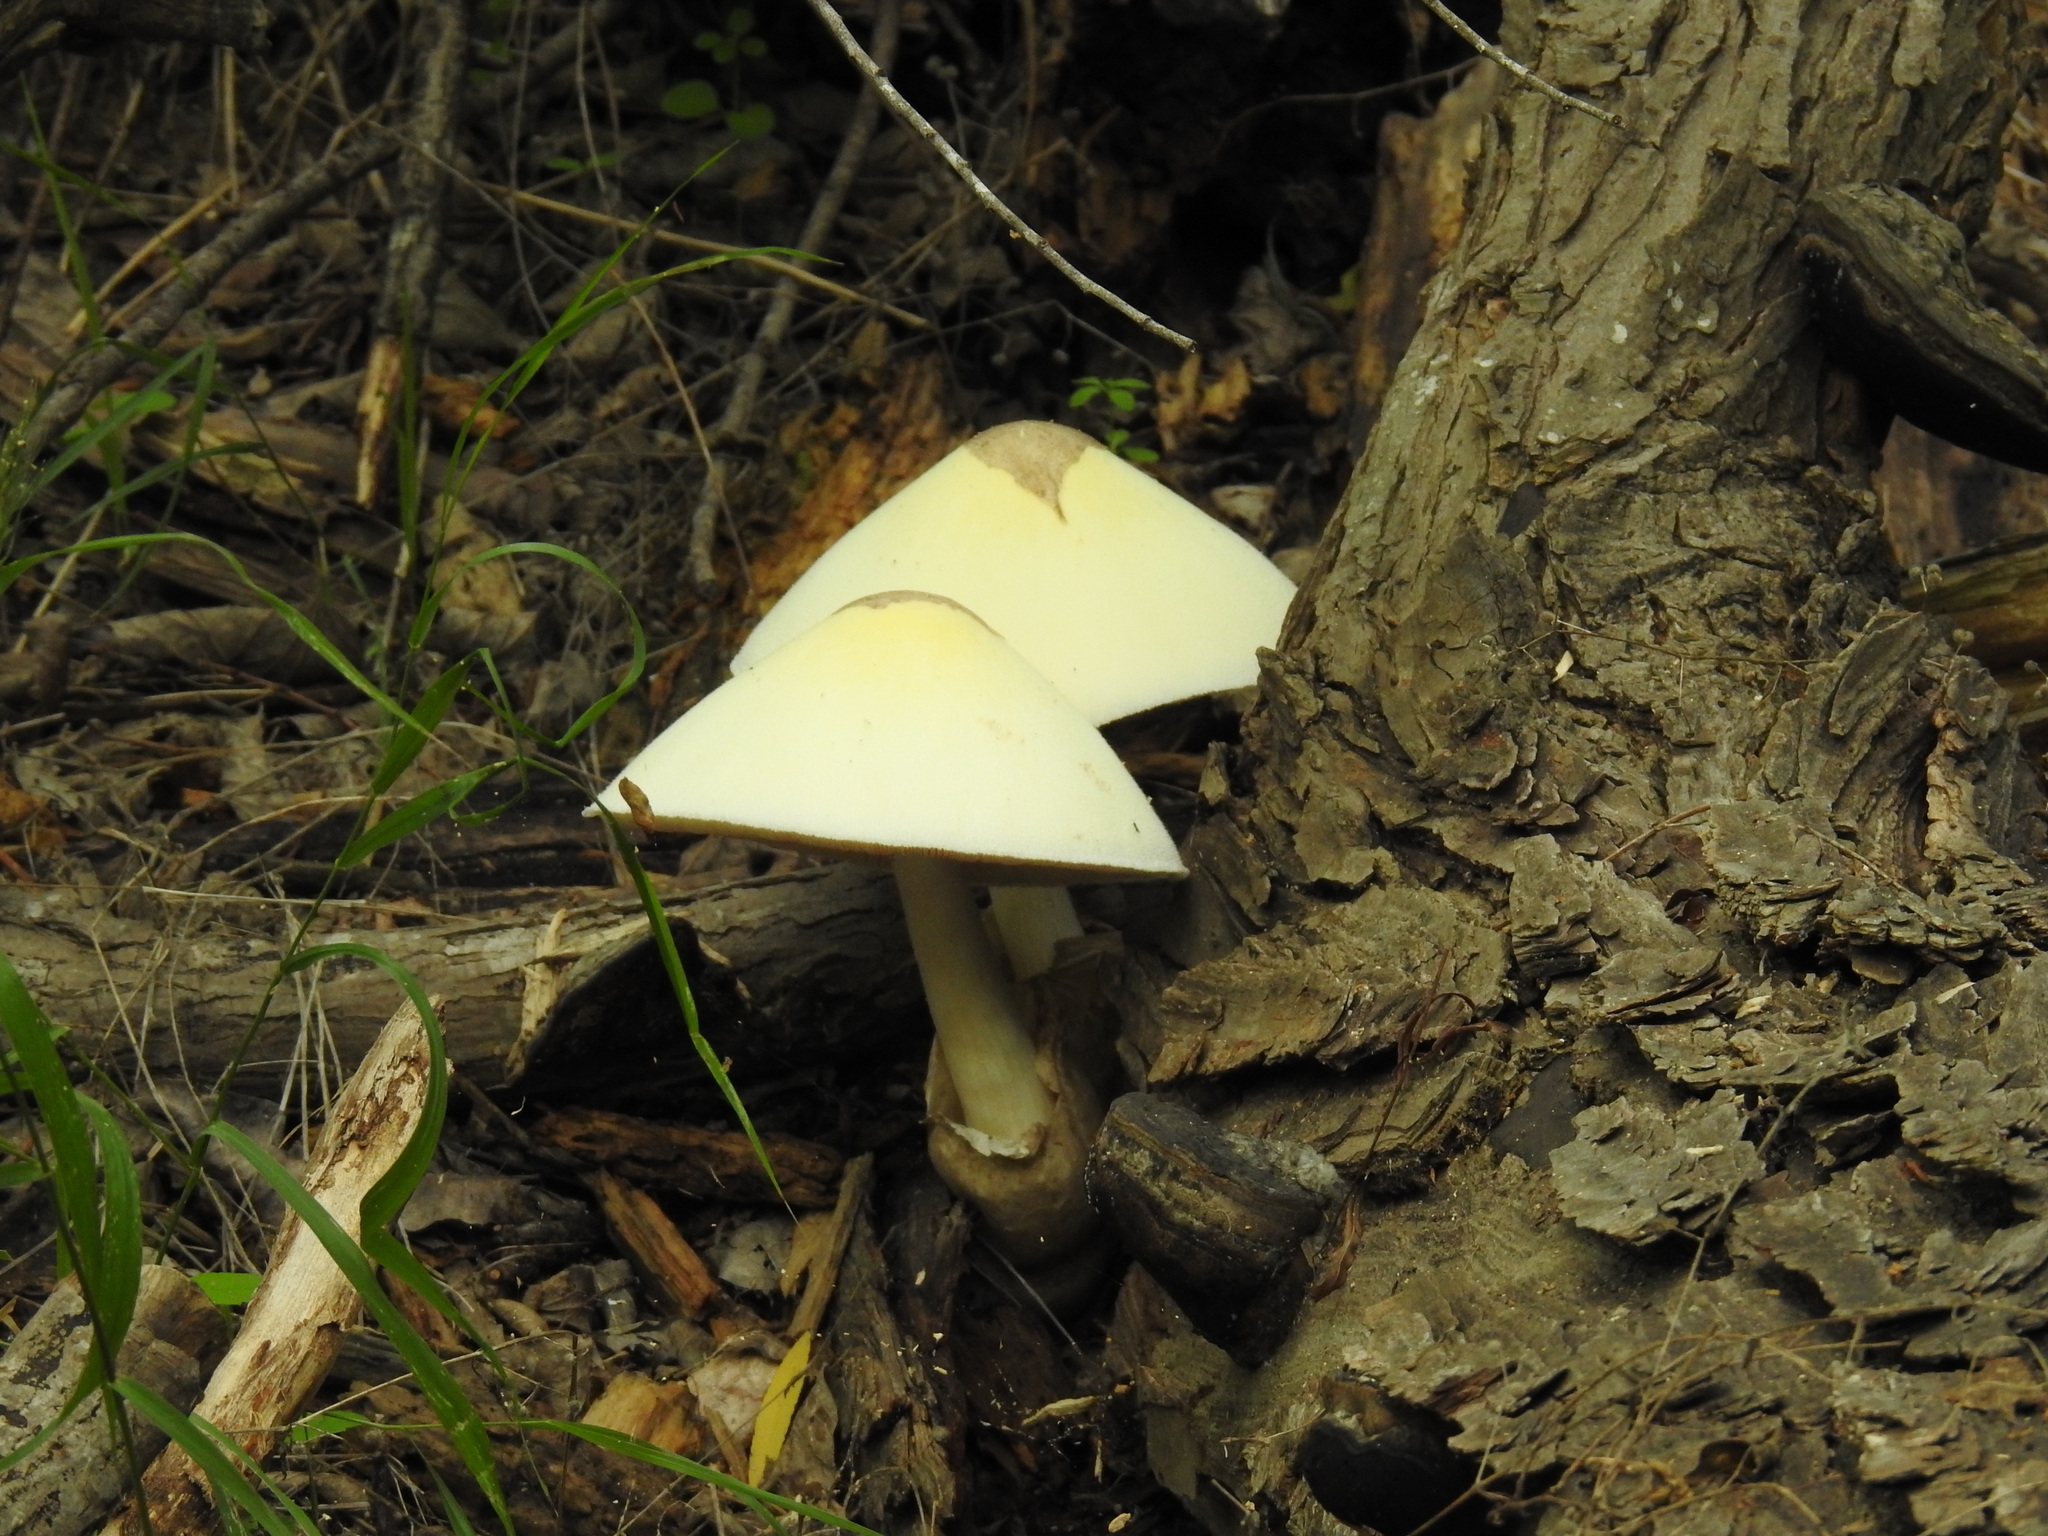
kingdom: Fungi
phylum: Basidiomycota
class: Agaricomycetes
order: Agaricales
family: Pluteaceae
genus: Volvariella
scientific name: Volvariella bombycina
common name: Silky rosegill
